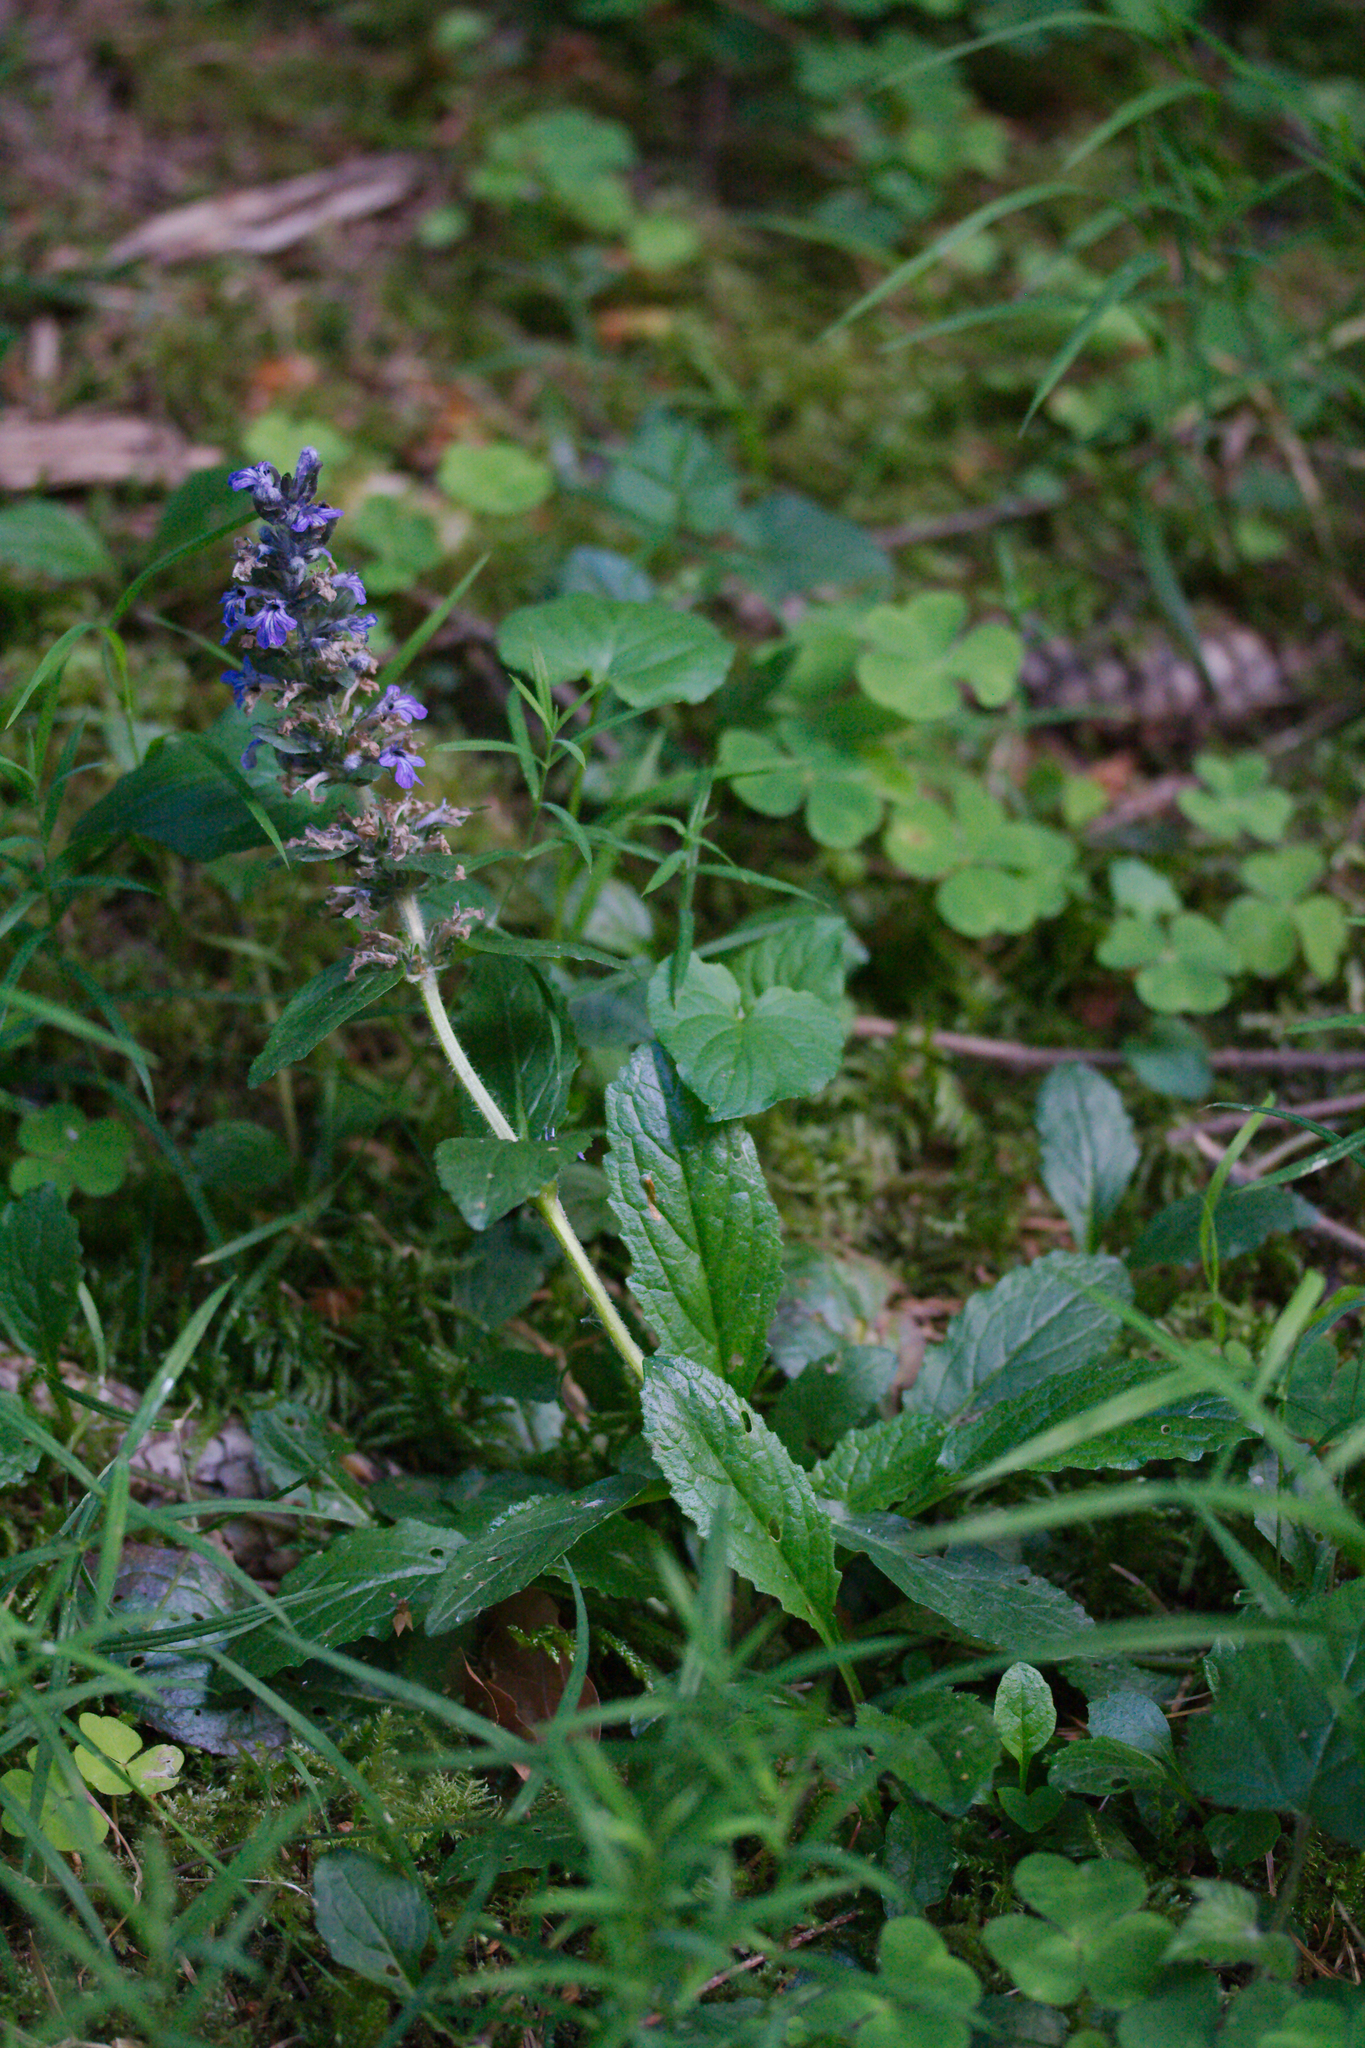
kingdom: Plantae
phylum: Tracheophyta
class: Magnoliopsida
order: Lamiales
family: Lamiaceae
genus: Ajuga
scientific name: Ajuga reptans
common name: Bugle
